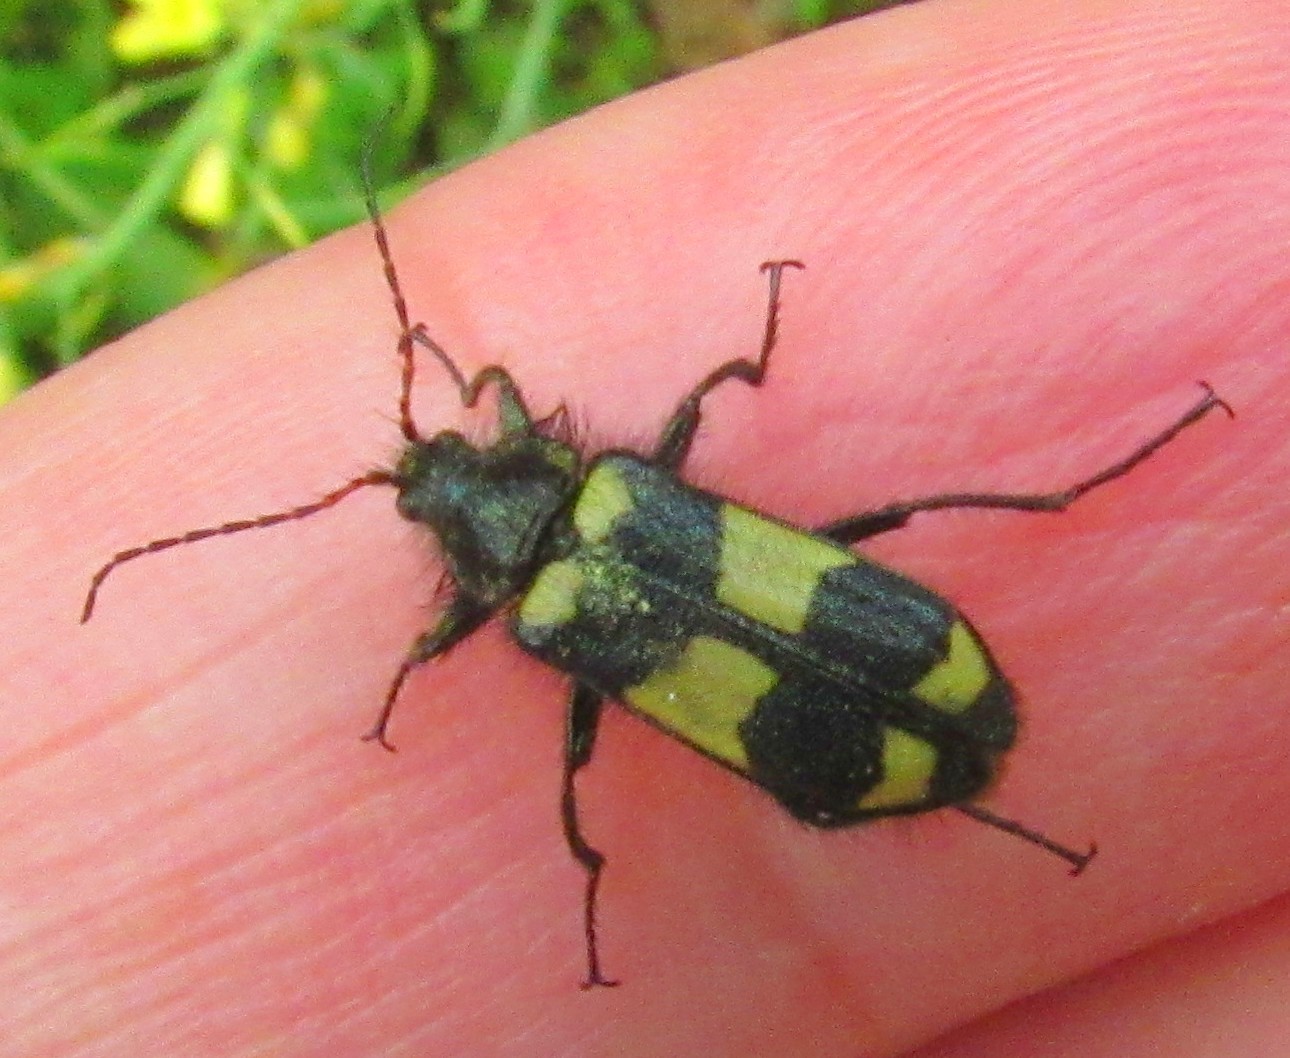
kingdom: Animalia
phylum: Arthropoda
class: Insecta
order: Coleoptera
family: Melyridae
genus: Astylus
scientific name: Astylus
